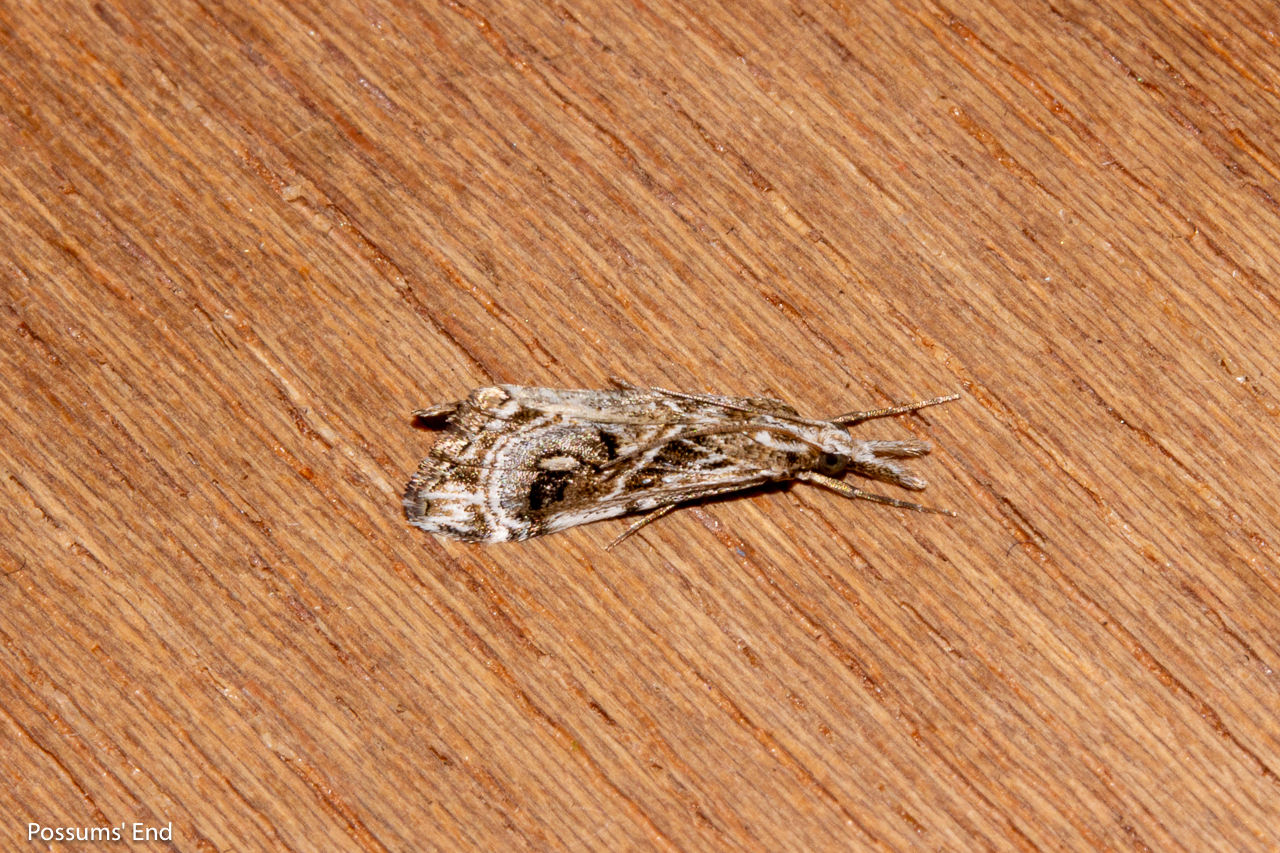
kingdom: Animalia
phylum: Arthropoda
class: Insecta
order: Lepidoptera
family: Crambidae
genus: Gadira
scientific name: Gadira acerella
